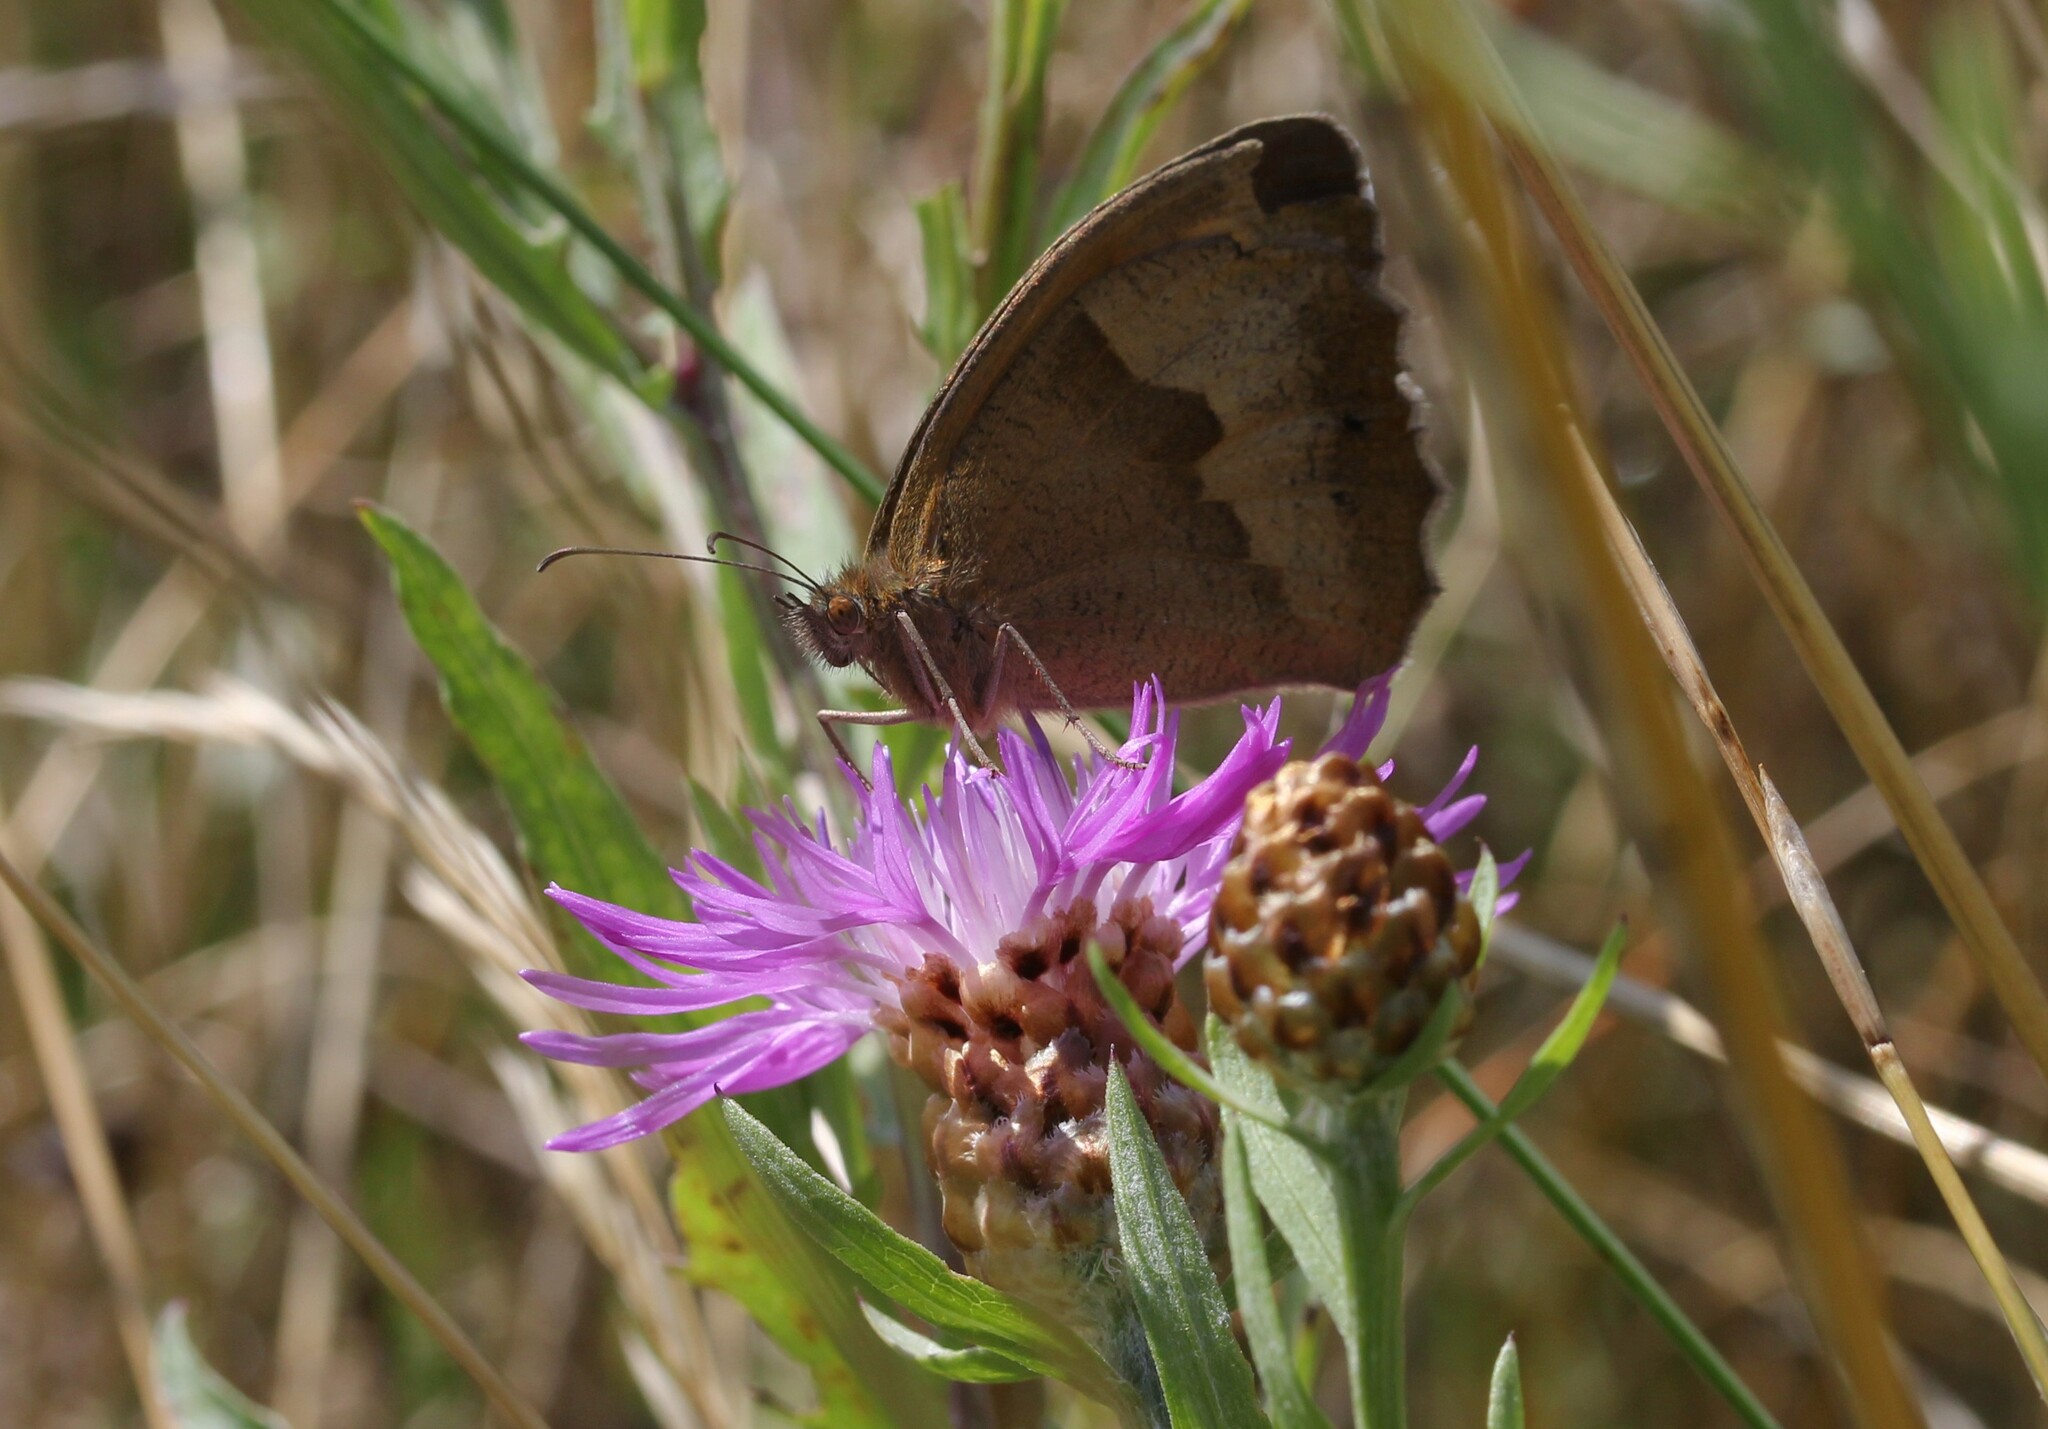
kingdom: Animalia
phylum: Arthropoda
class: Insecta
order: Lepidoptera
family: Nymphalidae
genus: Maniola
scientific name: Maniola jurtina
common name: Meadow brown
